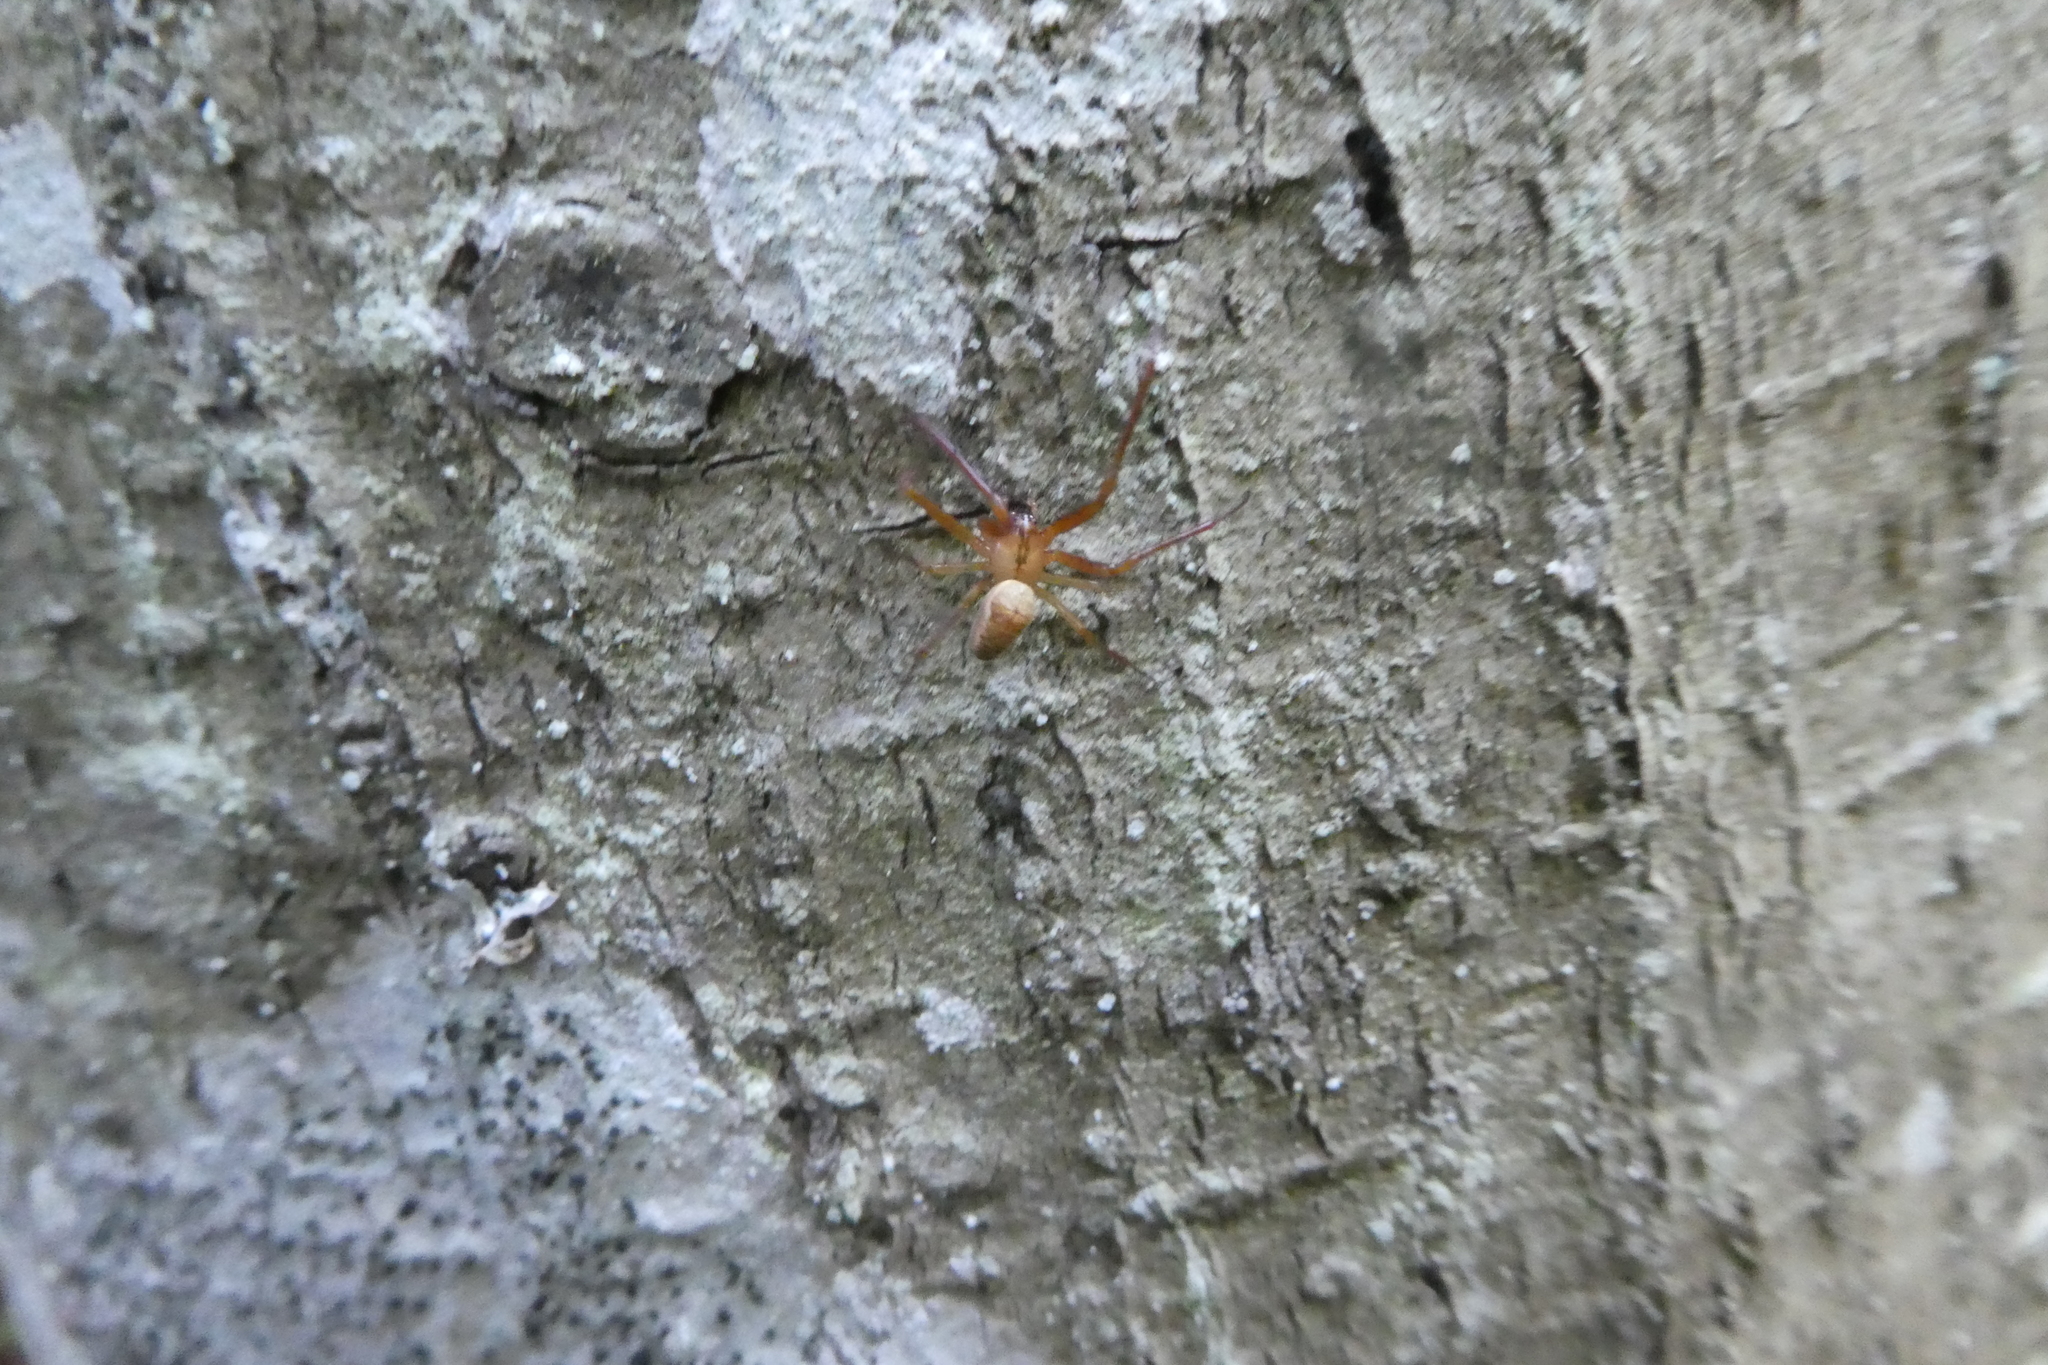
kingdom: Animalia
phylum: Arthropoda
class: Arachnida
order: Araneae
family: Tetragnathidae
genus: Metellina
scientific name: Metellina
